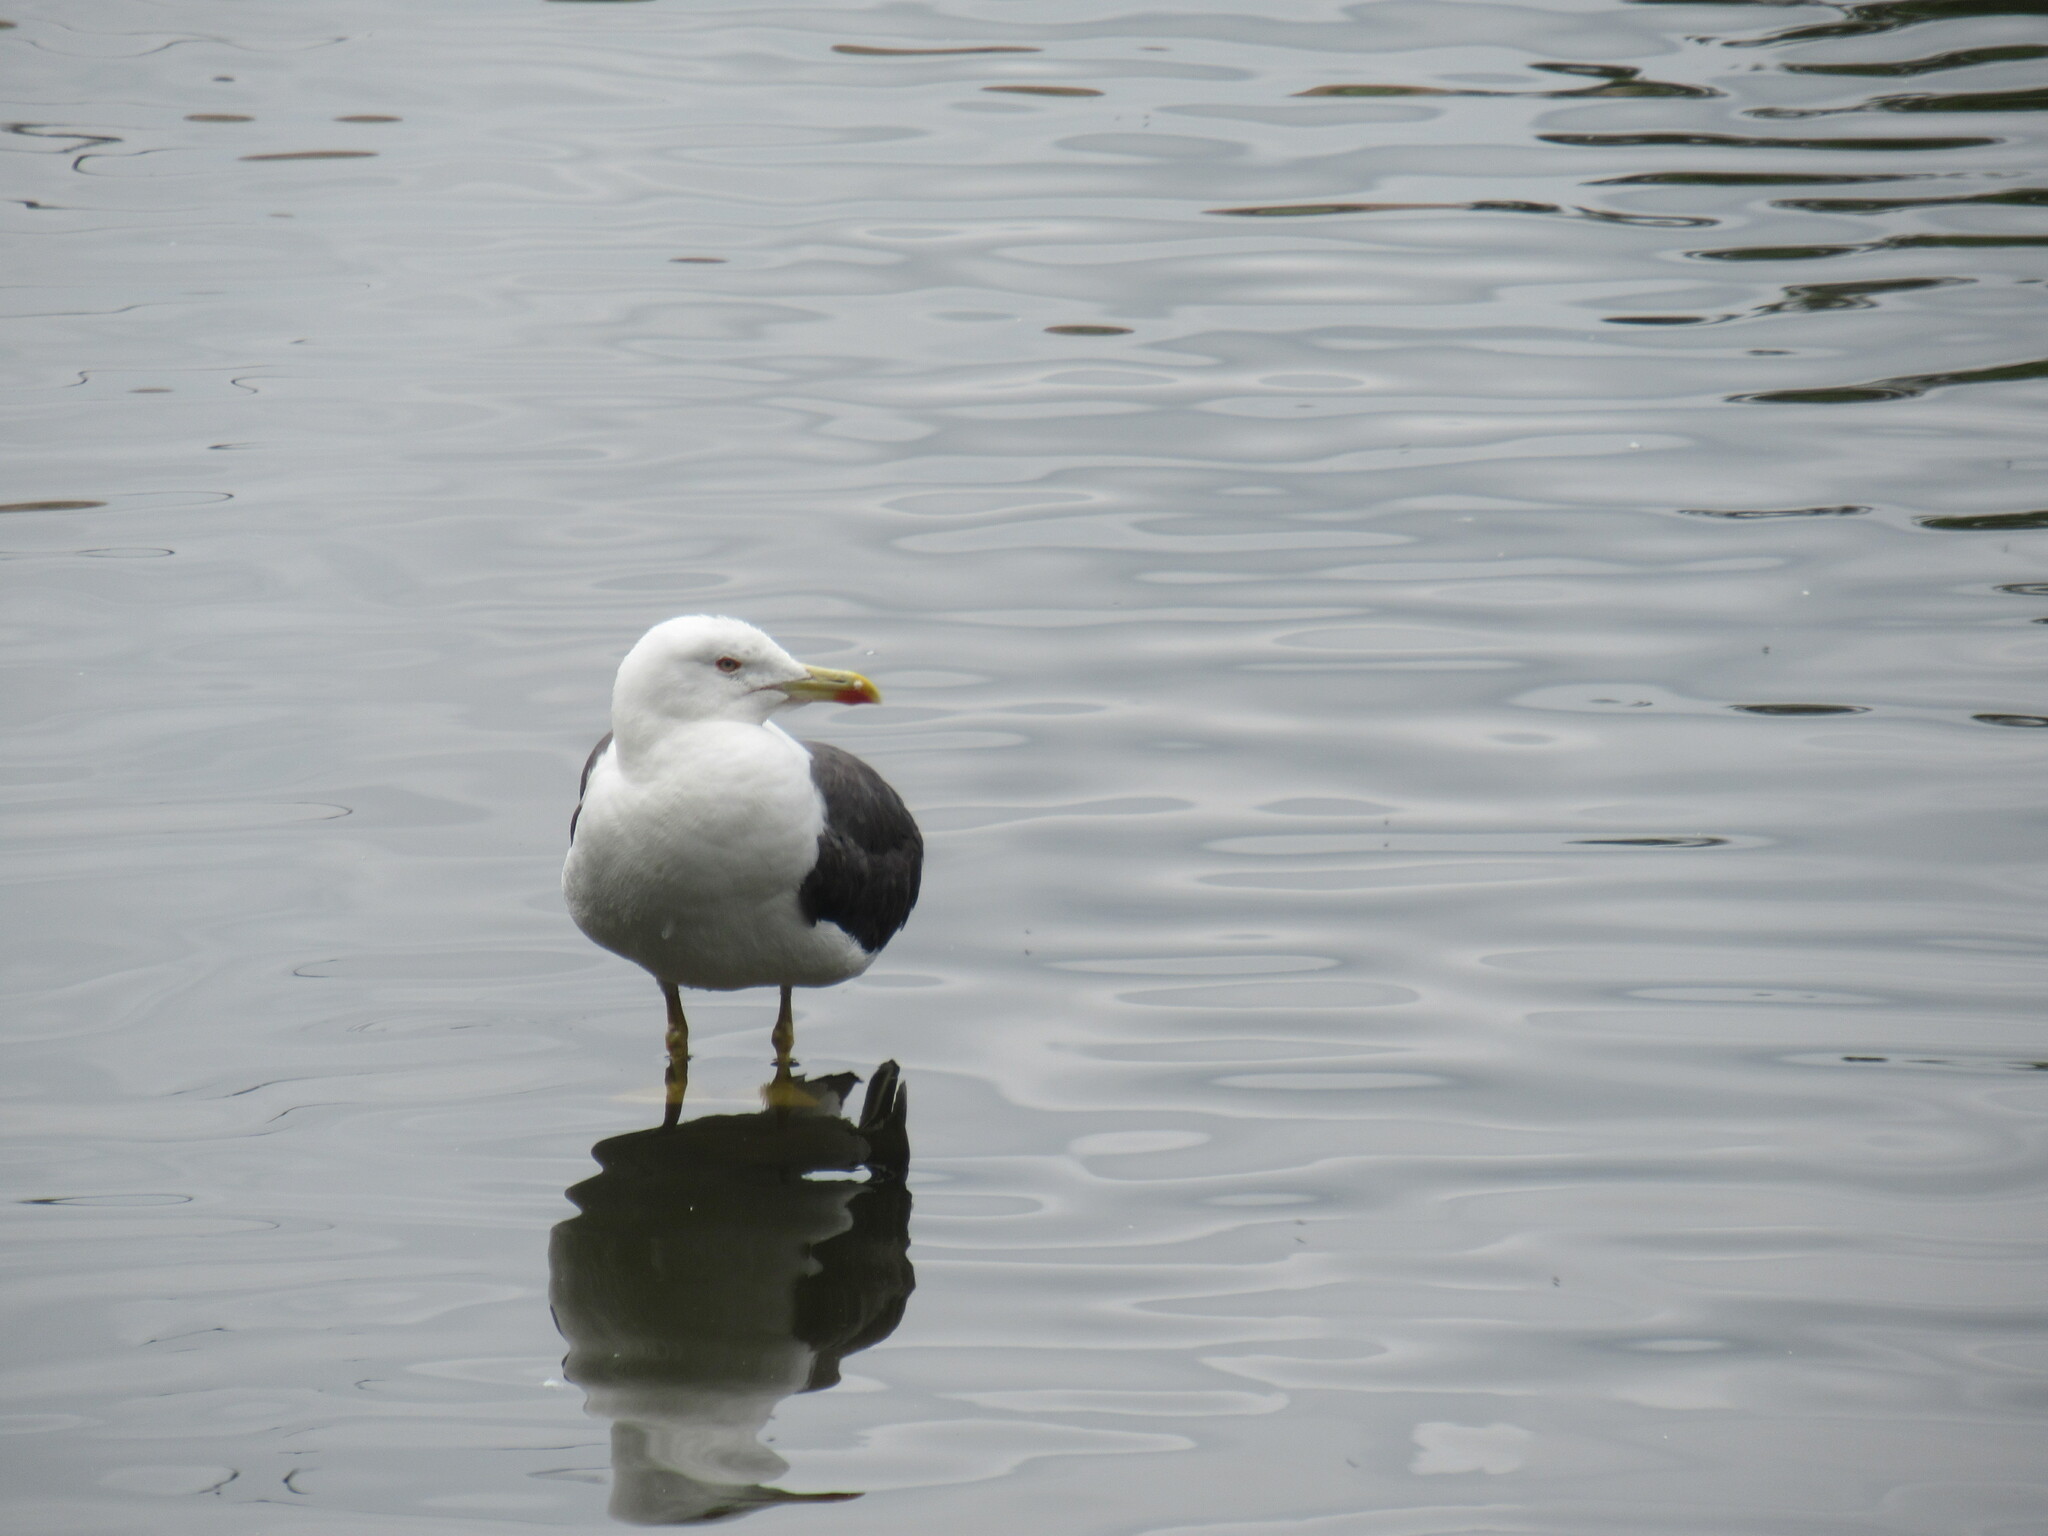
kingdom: Animalia
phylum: Chordata
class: Aves
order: Charadriiformes
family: Laridae
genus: Larus
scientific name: Larus fuscus
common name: Lesser black-backed gull
